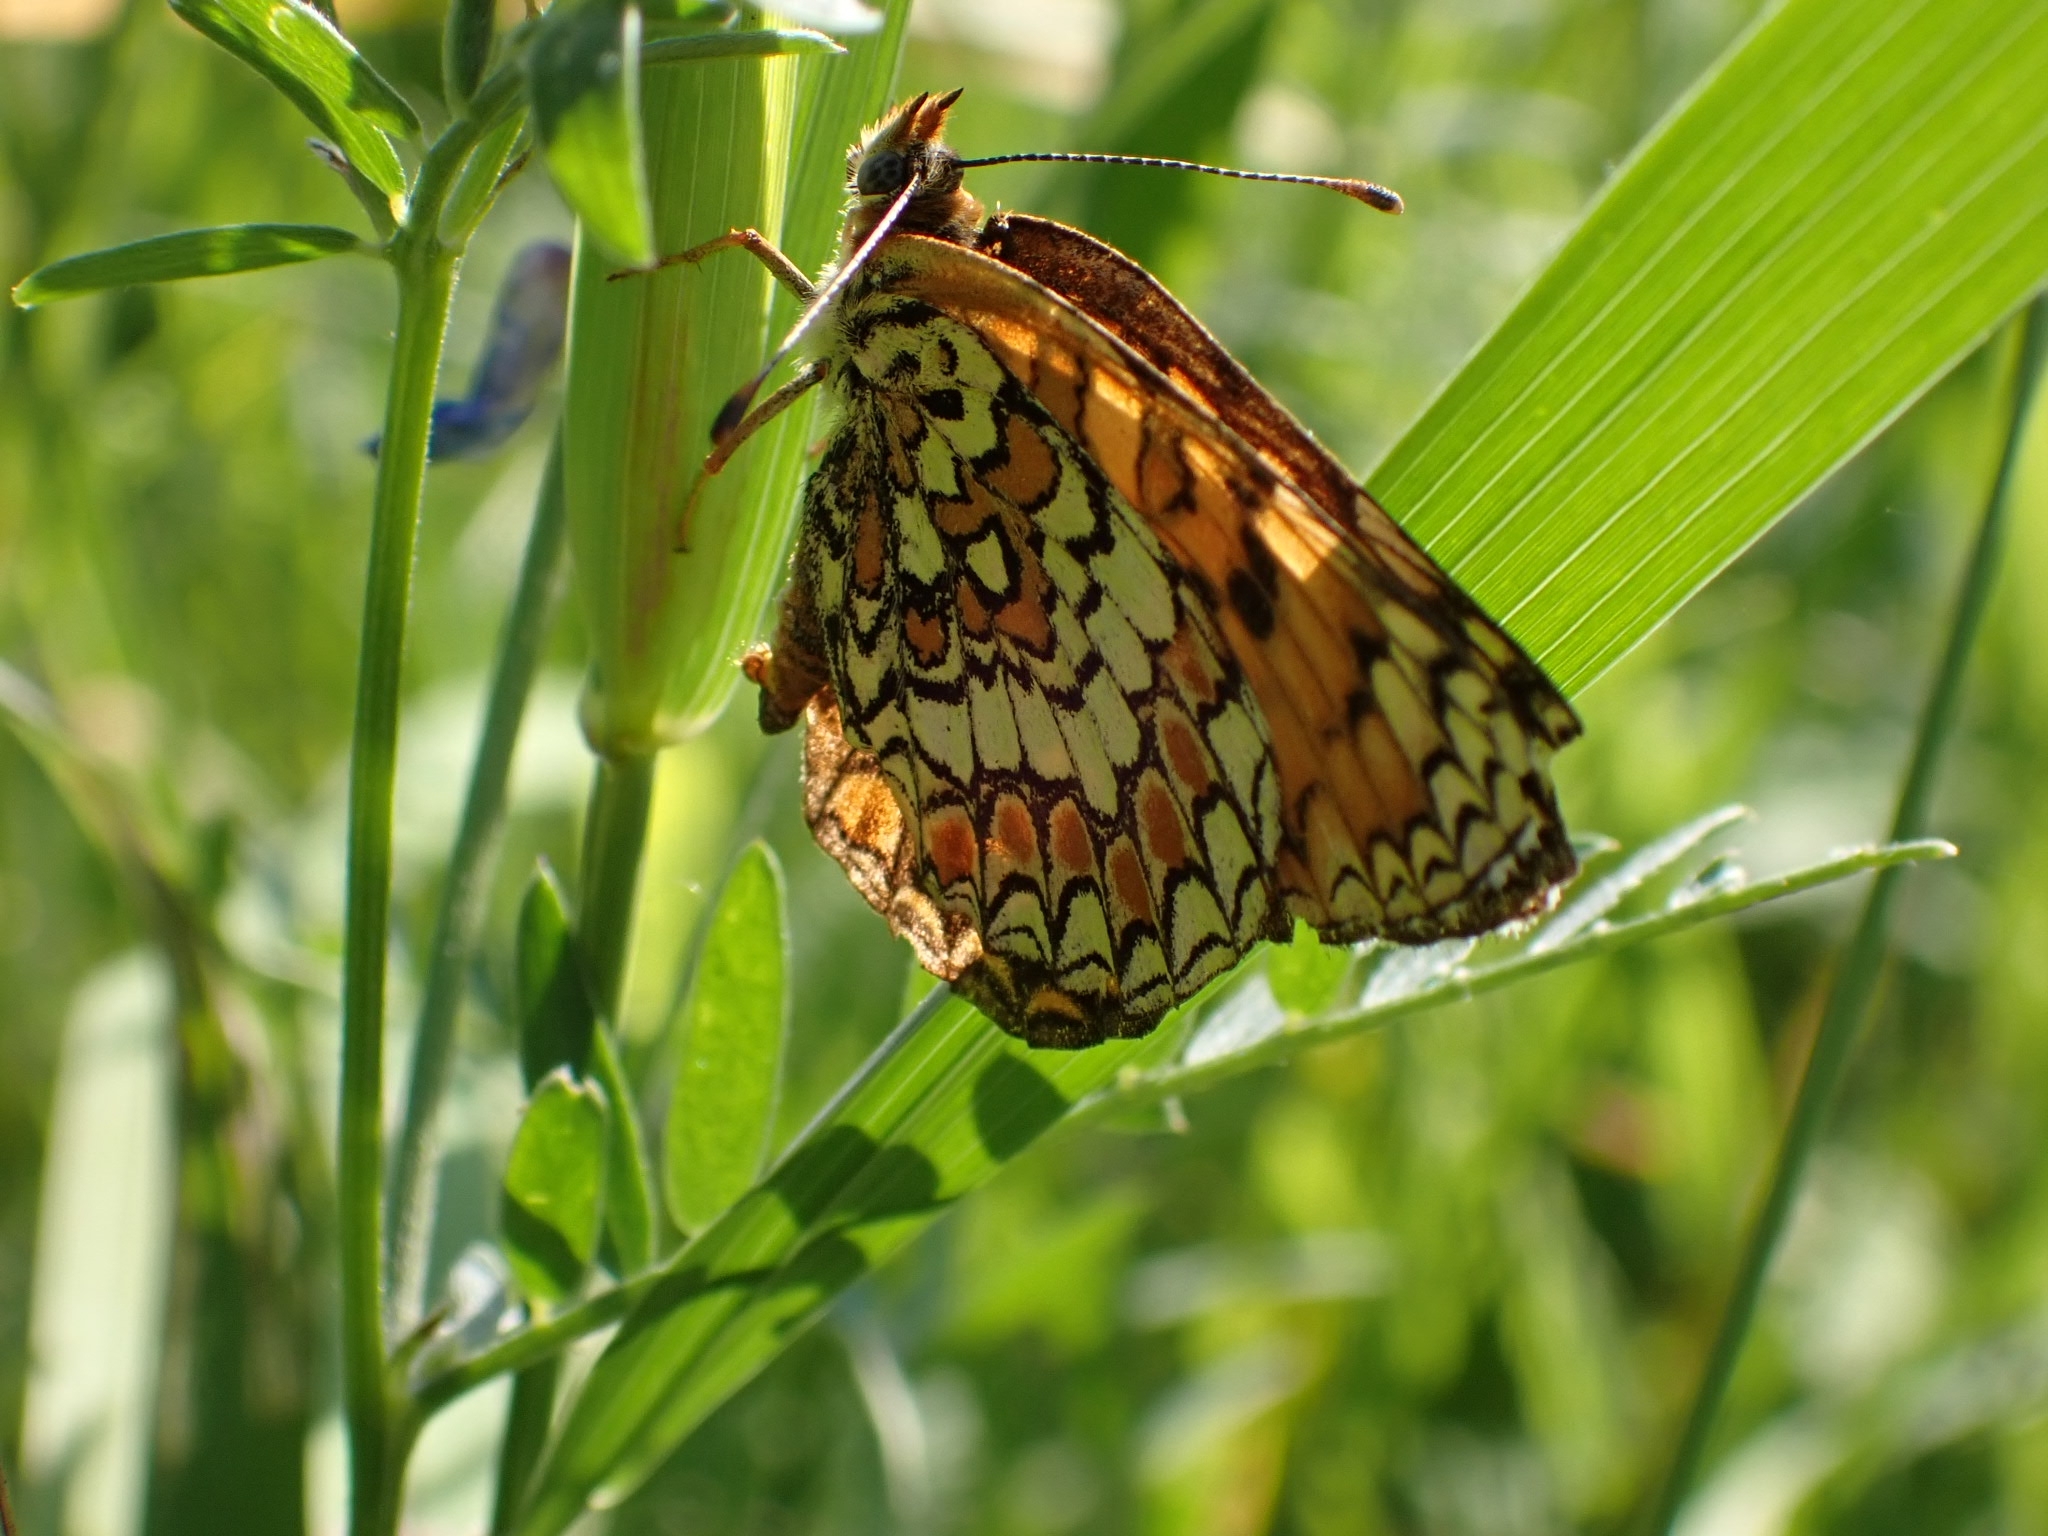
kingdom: Animalia
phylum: Arthropoda
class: Insecta
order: Lepidoptera
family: Nymphalidae
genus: Melitaea
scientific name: Melitaea phoebe
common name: Knapweed fritillary
